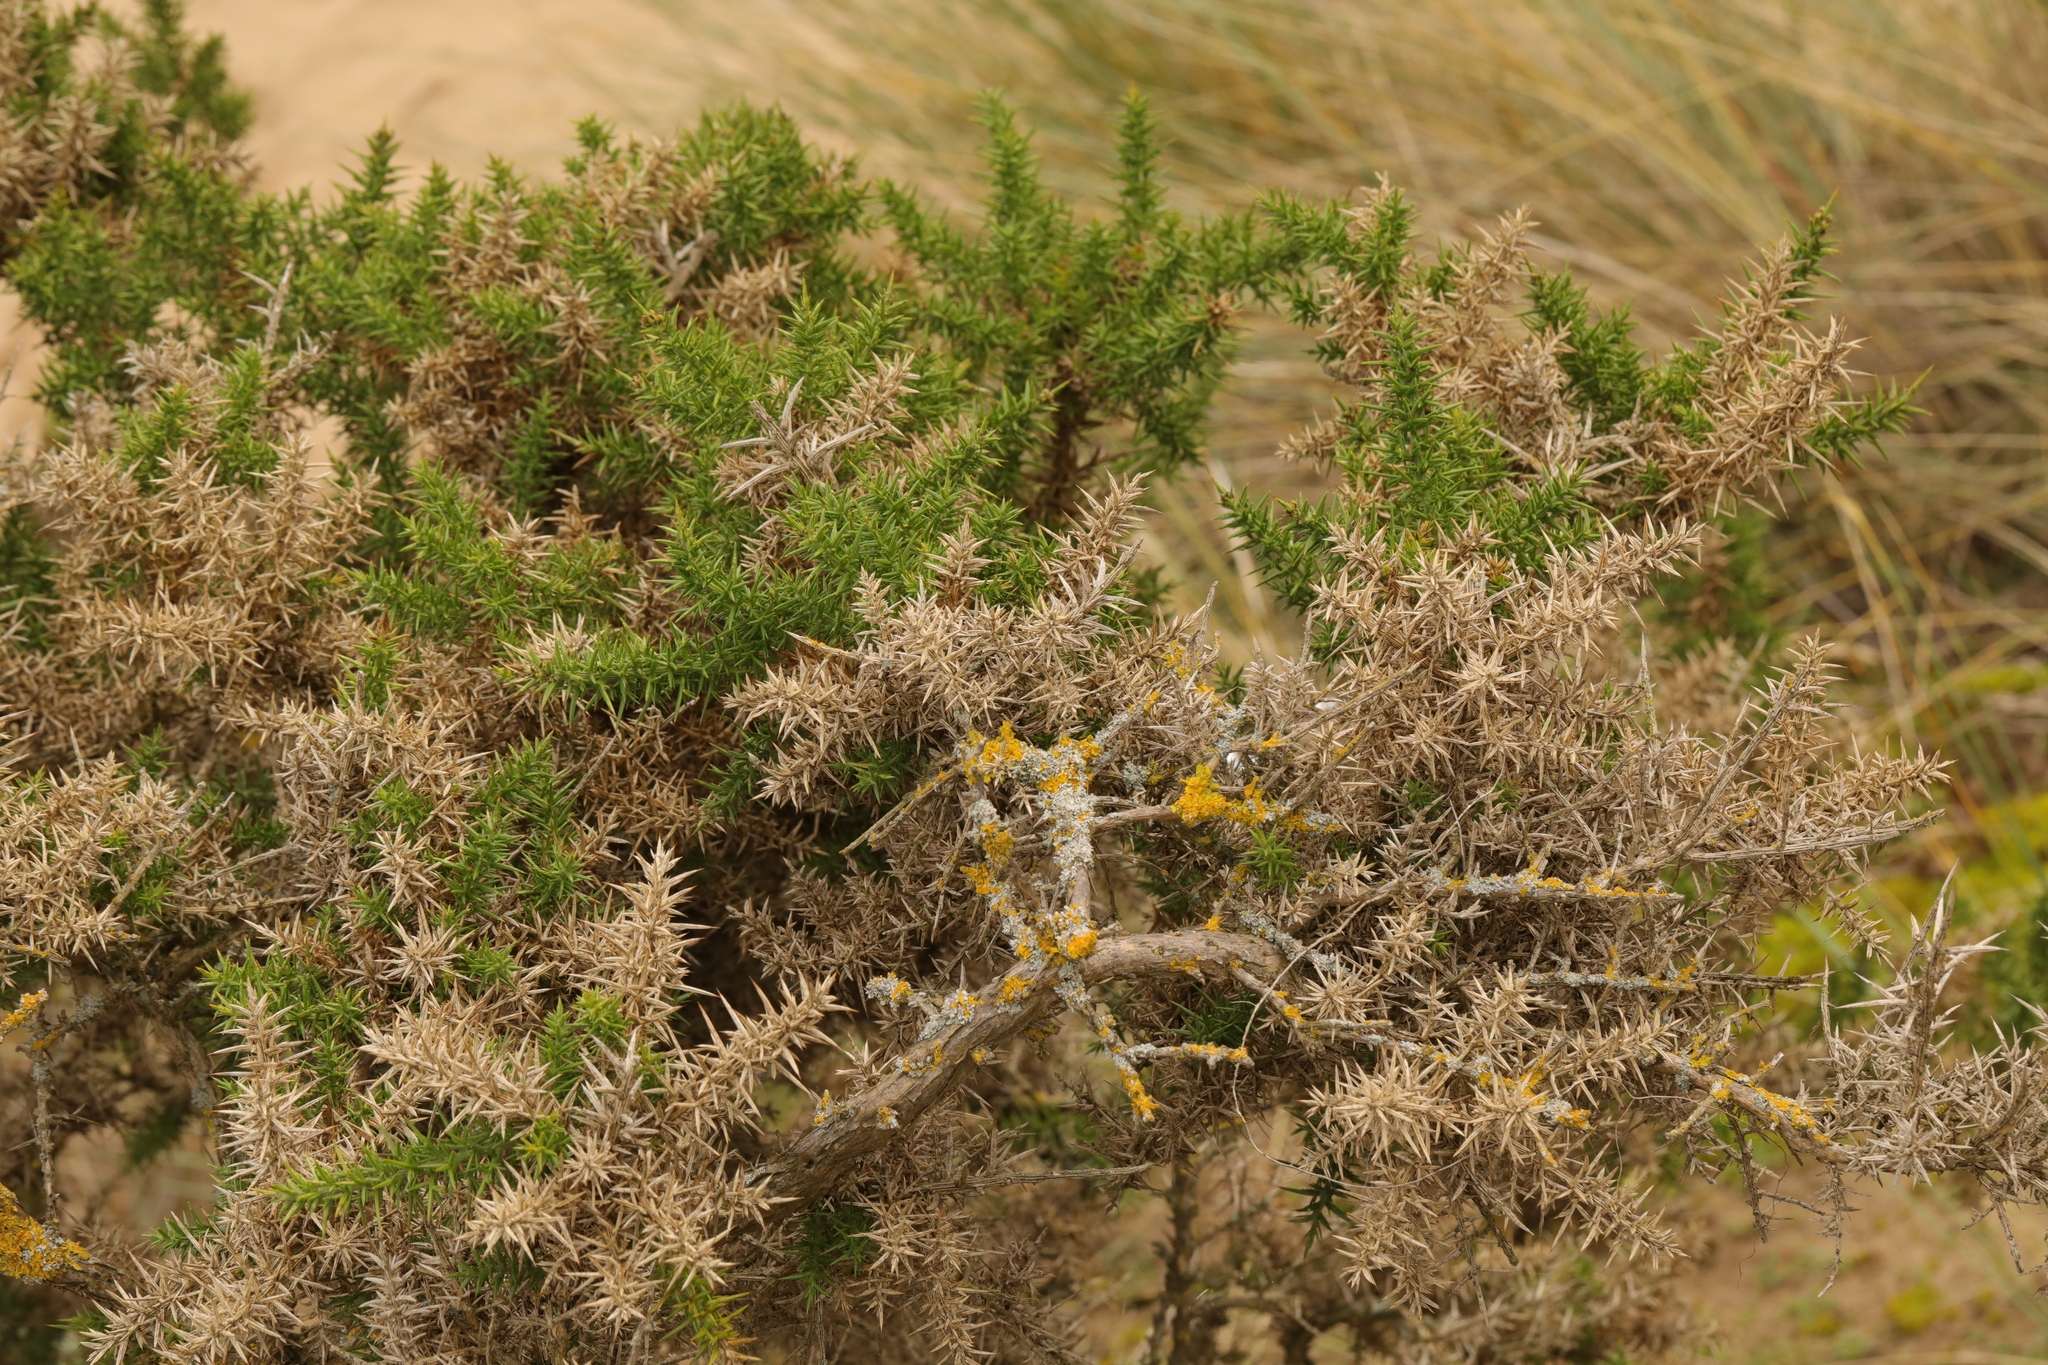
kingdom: Plantae
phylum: Tracheophyta
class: Magnoliopsida
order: Fabales
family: Fabaceae
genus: Ulex
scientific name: Ulex europaeus
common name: Common gorse
